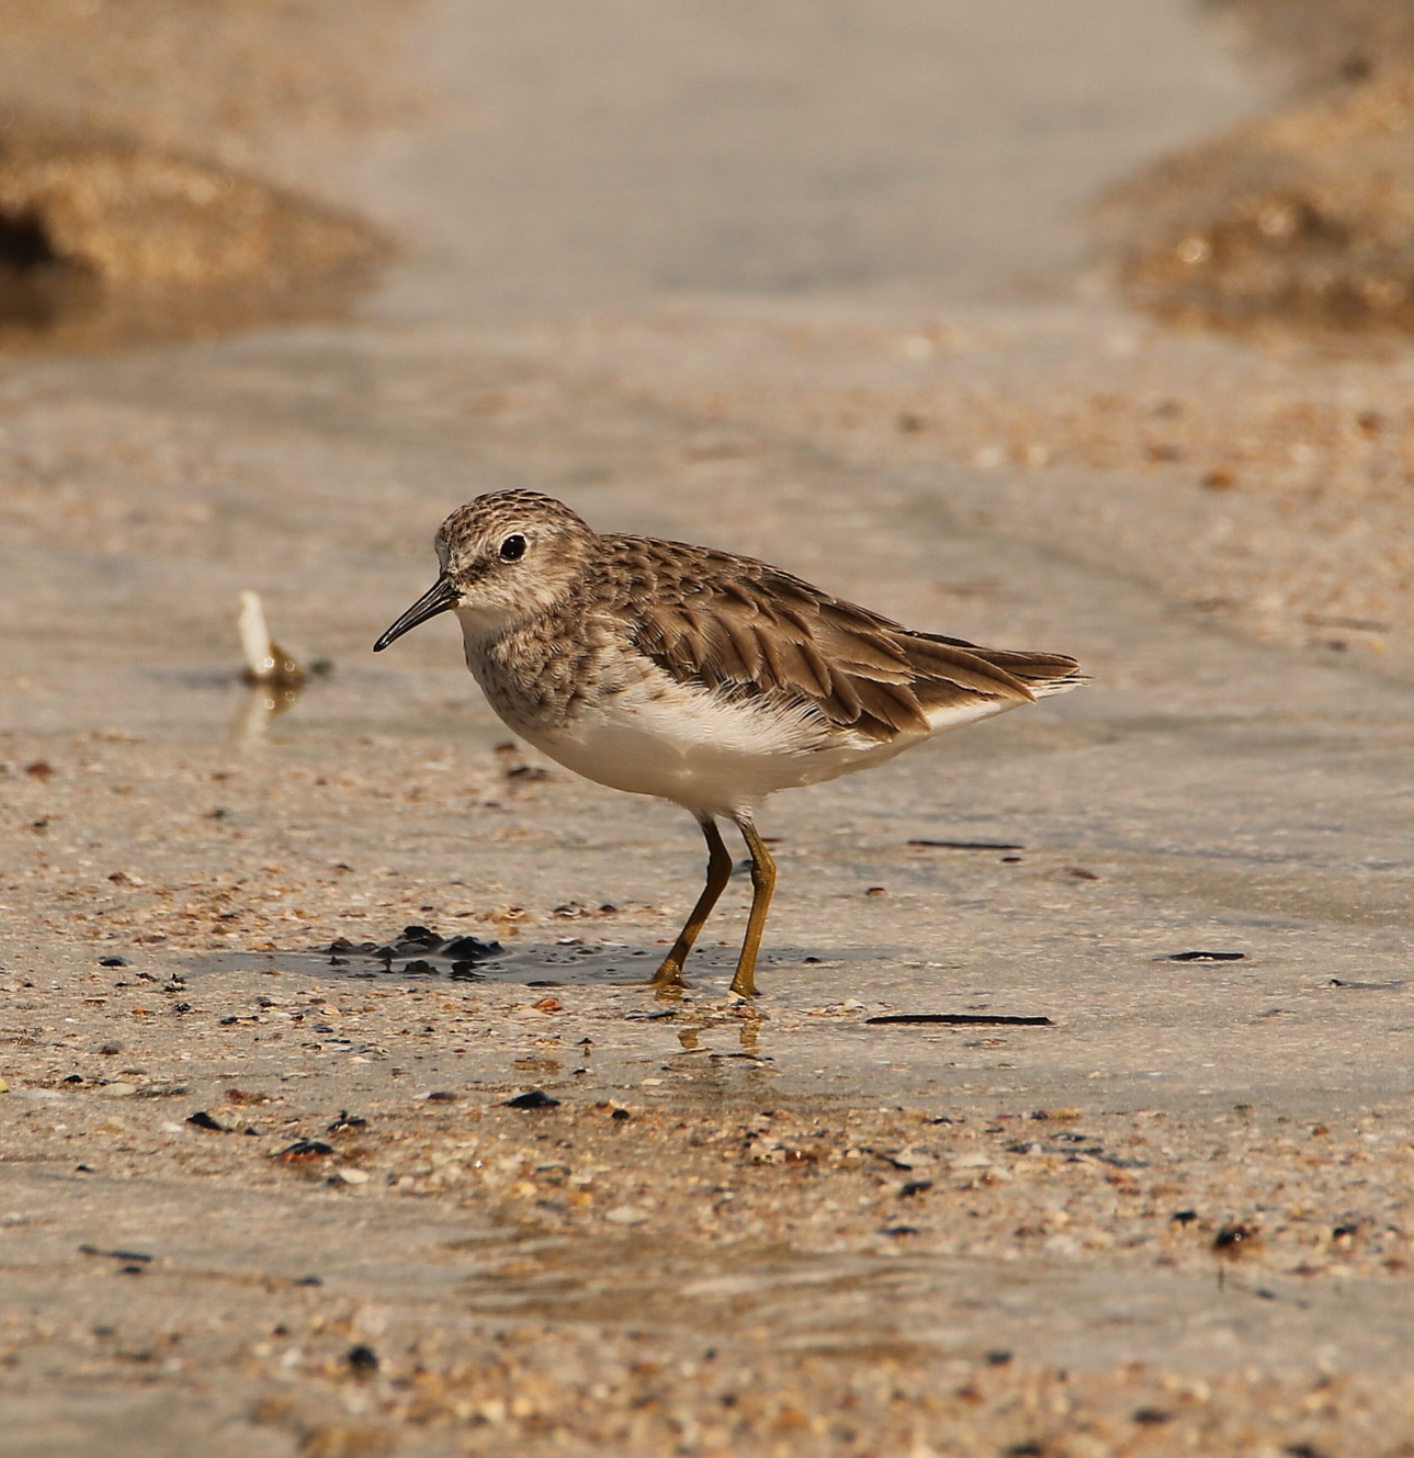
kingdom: Animalia
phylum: Chordata
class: Aves
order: Charadriiformes
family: Scolopacidae
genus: Calidris
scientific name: Calidris minutilla
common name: Least sandpiper
